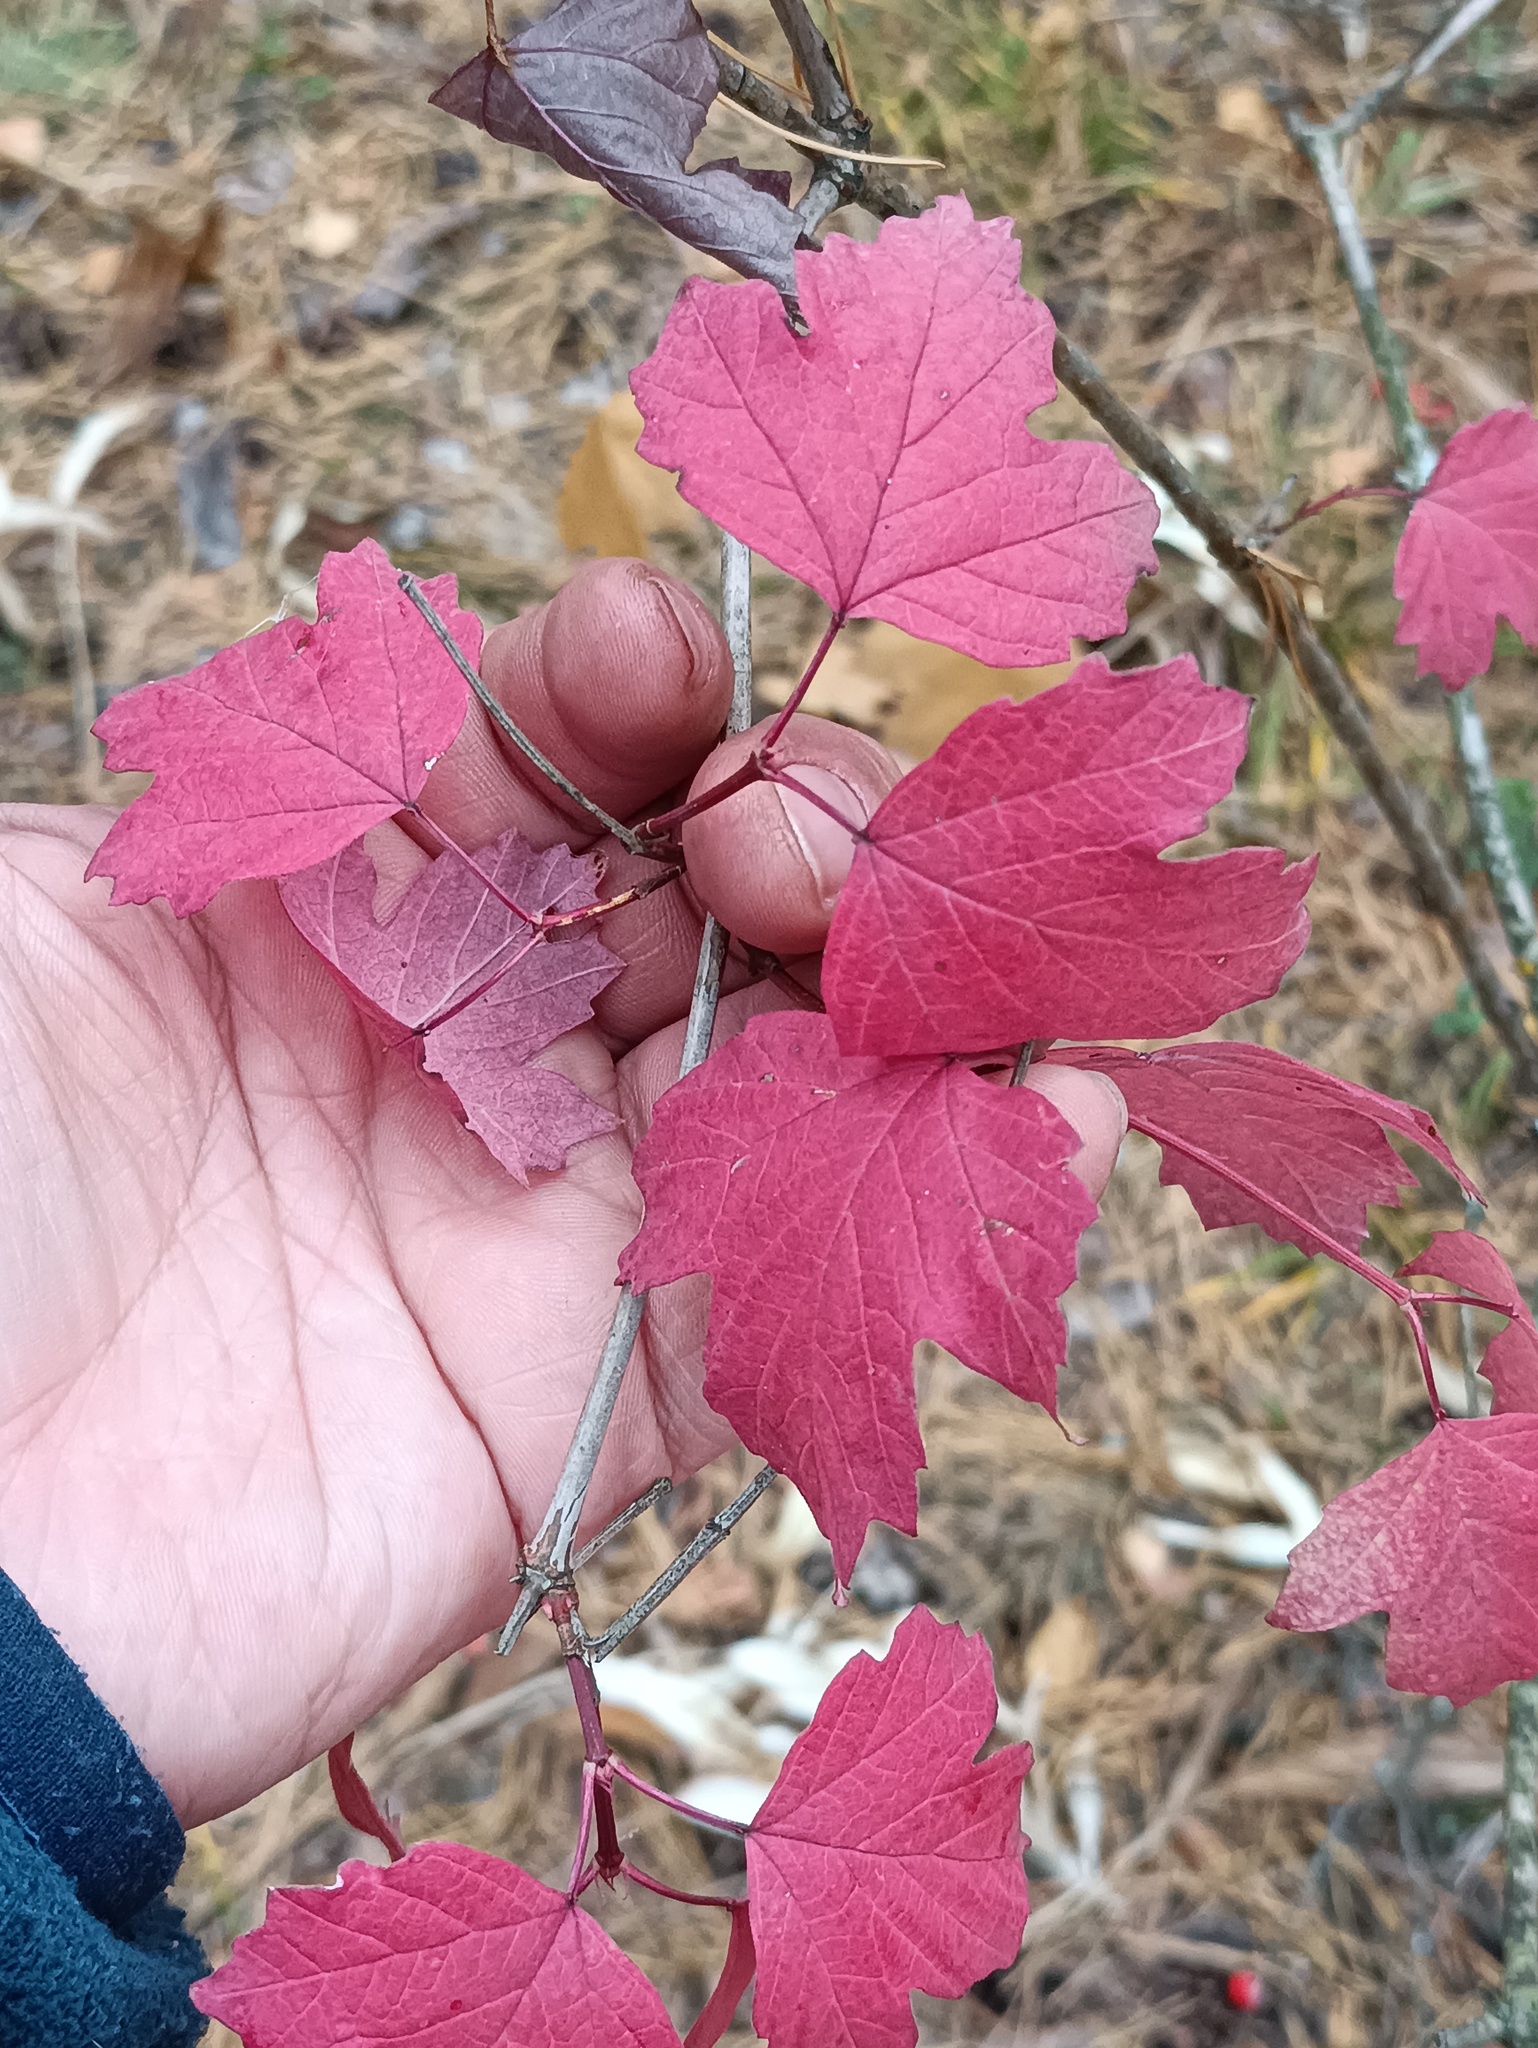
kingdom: Plantae
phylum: Tracheophyta
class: Magnoliopsida
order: Dipsacales
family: Viburnaceae
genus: Viburnum
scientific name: Viburnum opulus
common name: Guelder-rose
